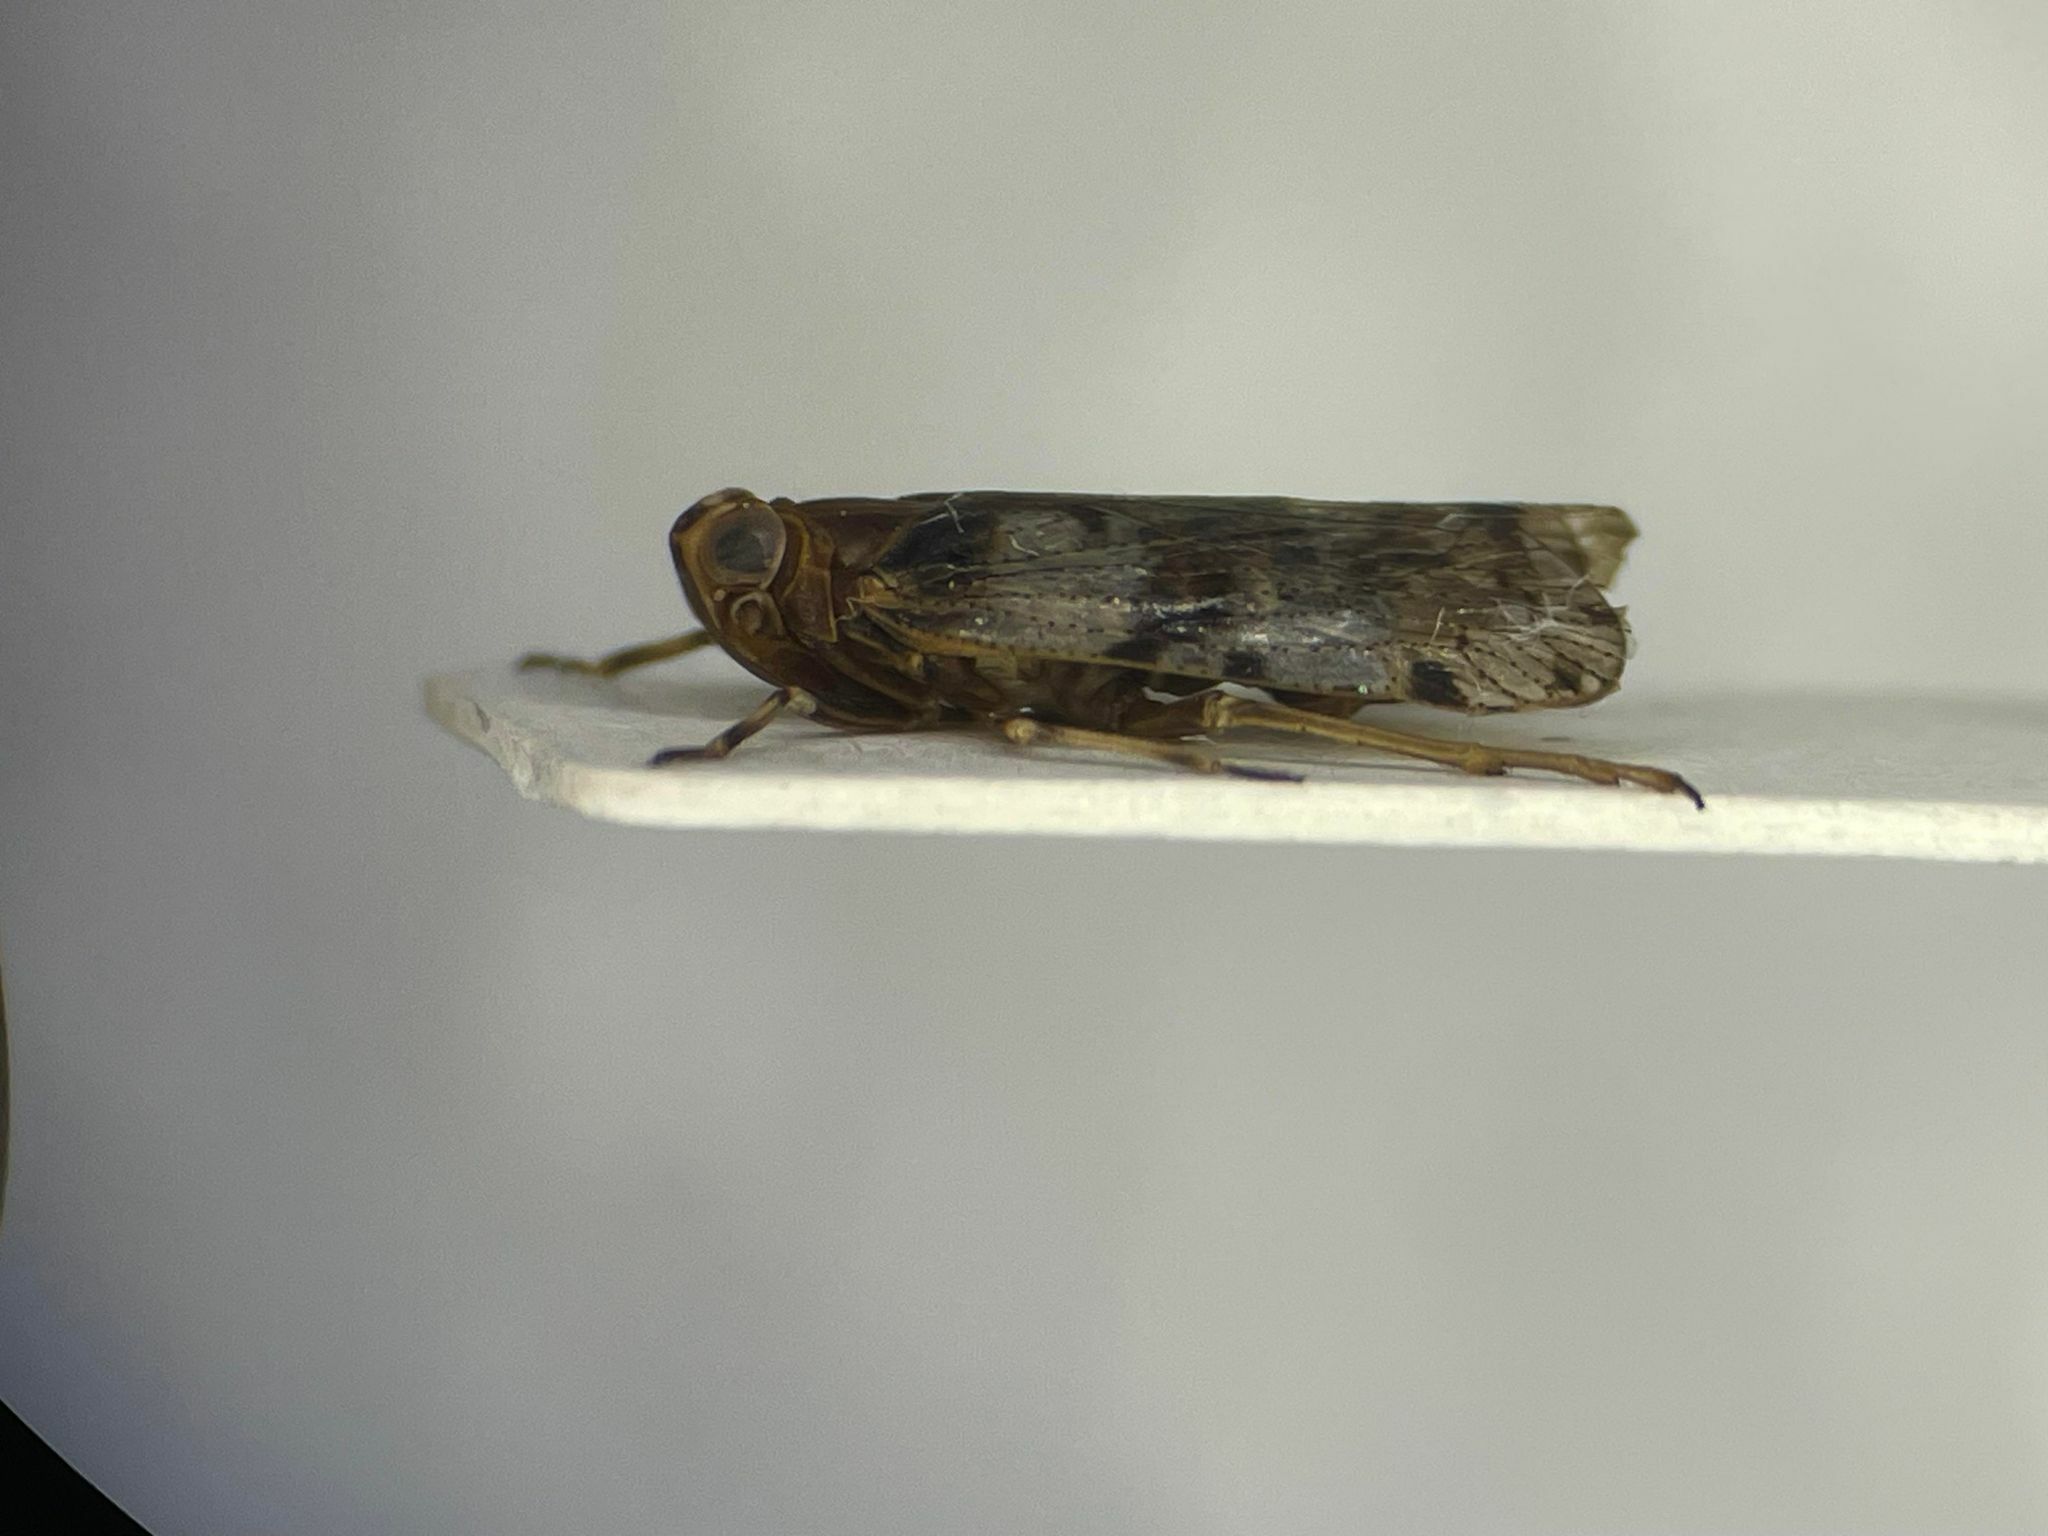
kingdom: Animalia
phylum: Arthropoda
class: Insecta
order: Hemiptera
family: Cixiidae
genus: Melanoliarus
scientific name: Melanoliarus quinquelineatus
